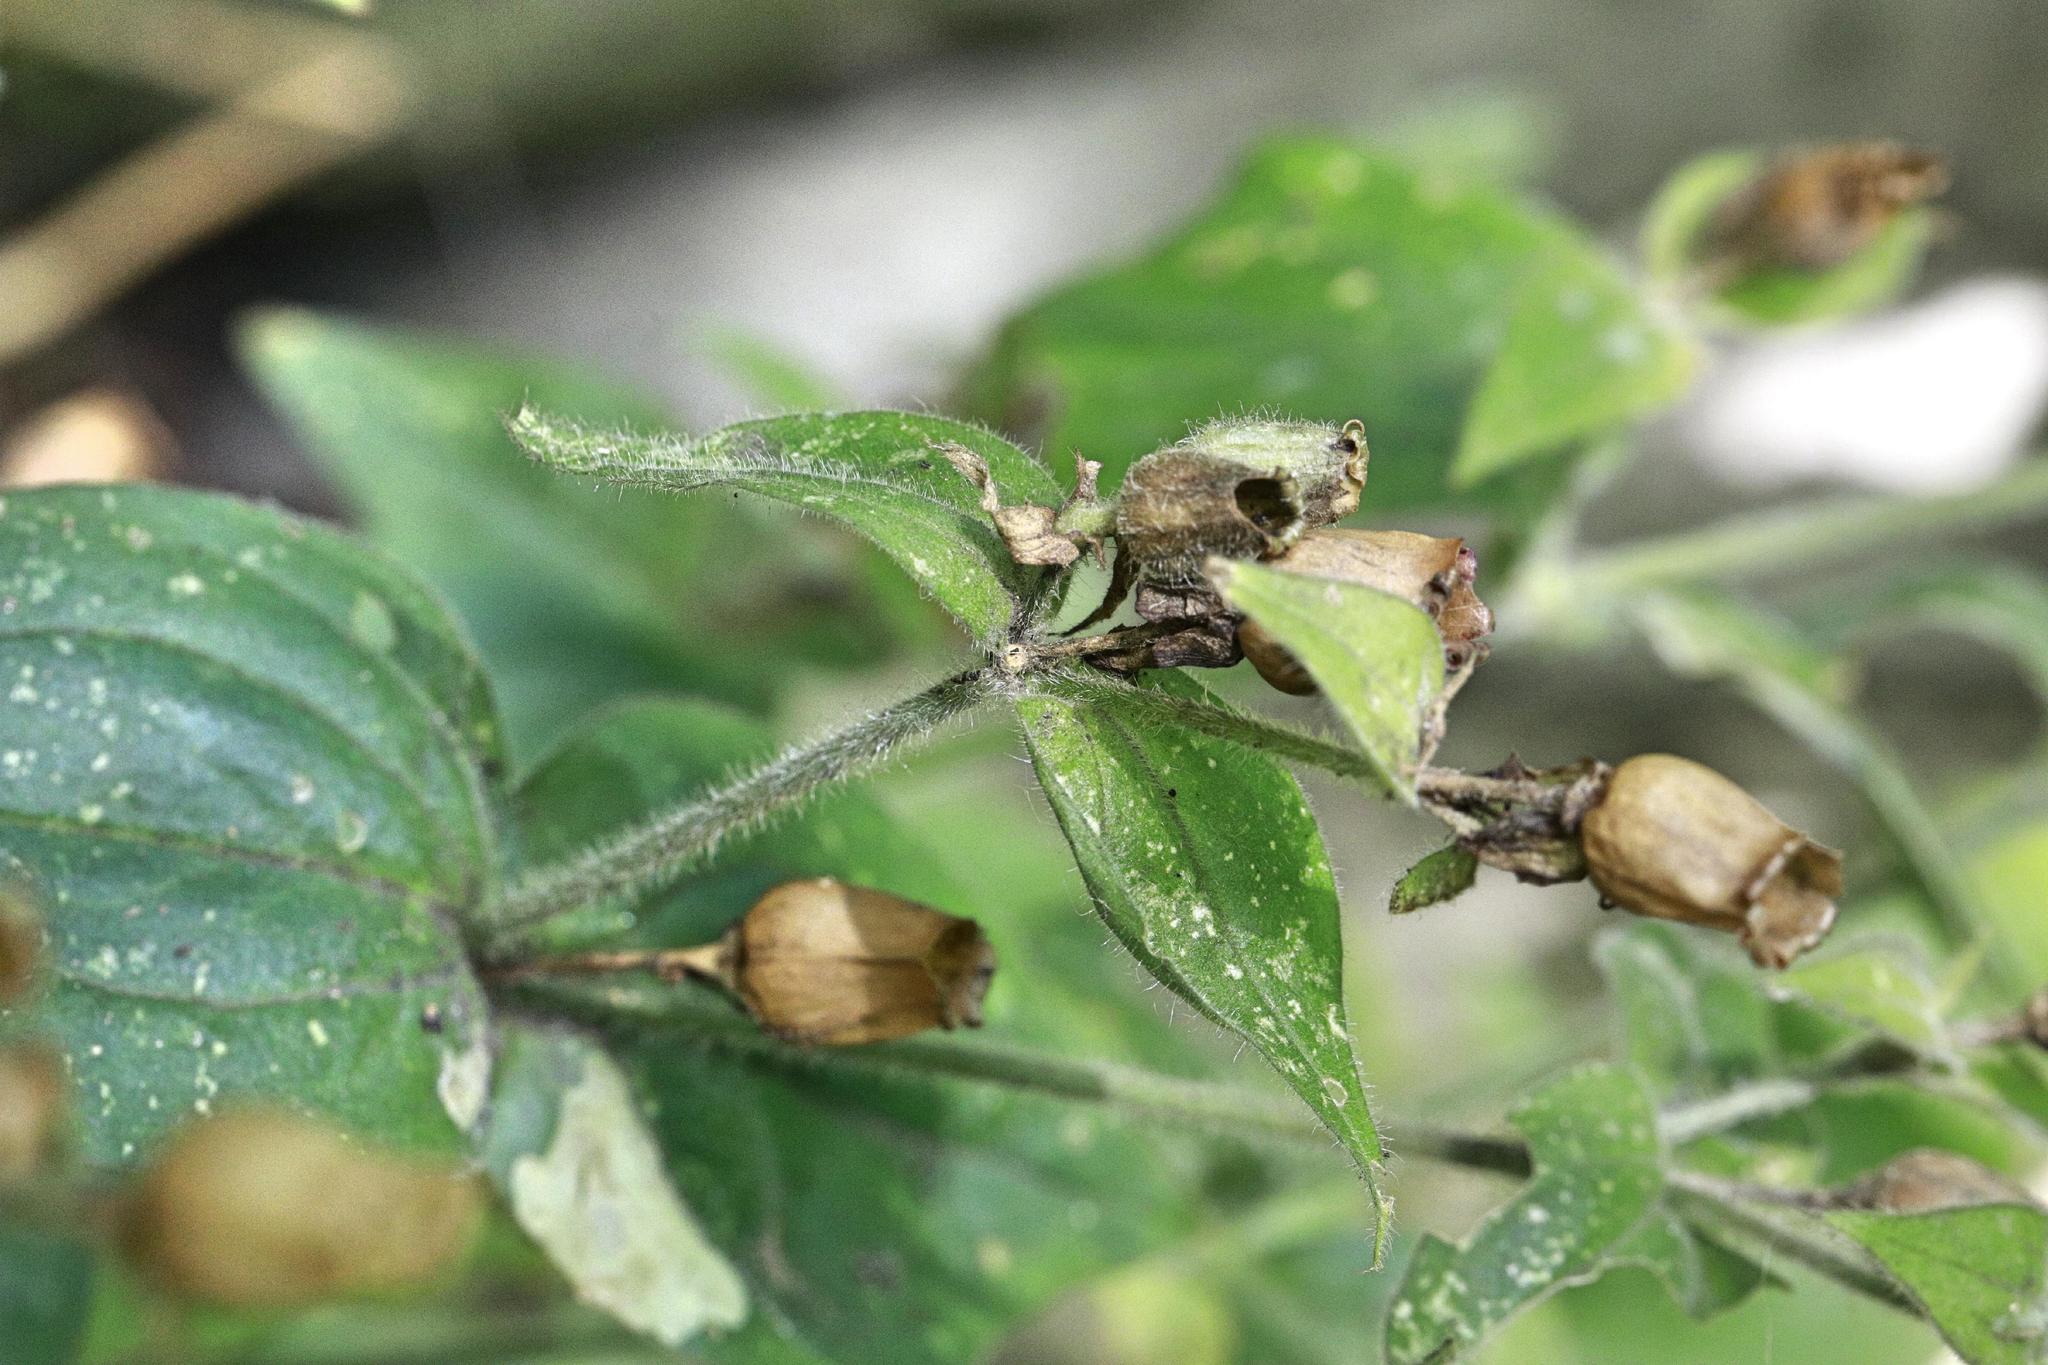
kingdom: Plantae
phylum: Tracheophyta
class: Magnoliopsida
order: Caryophyllales
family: Caryophyllaceae
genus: Silene
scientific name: Silene dioica
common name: Red campion
